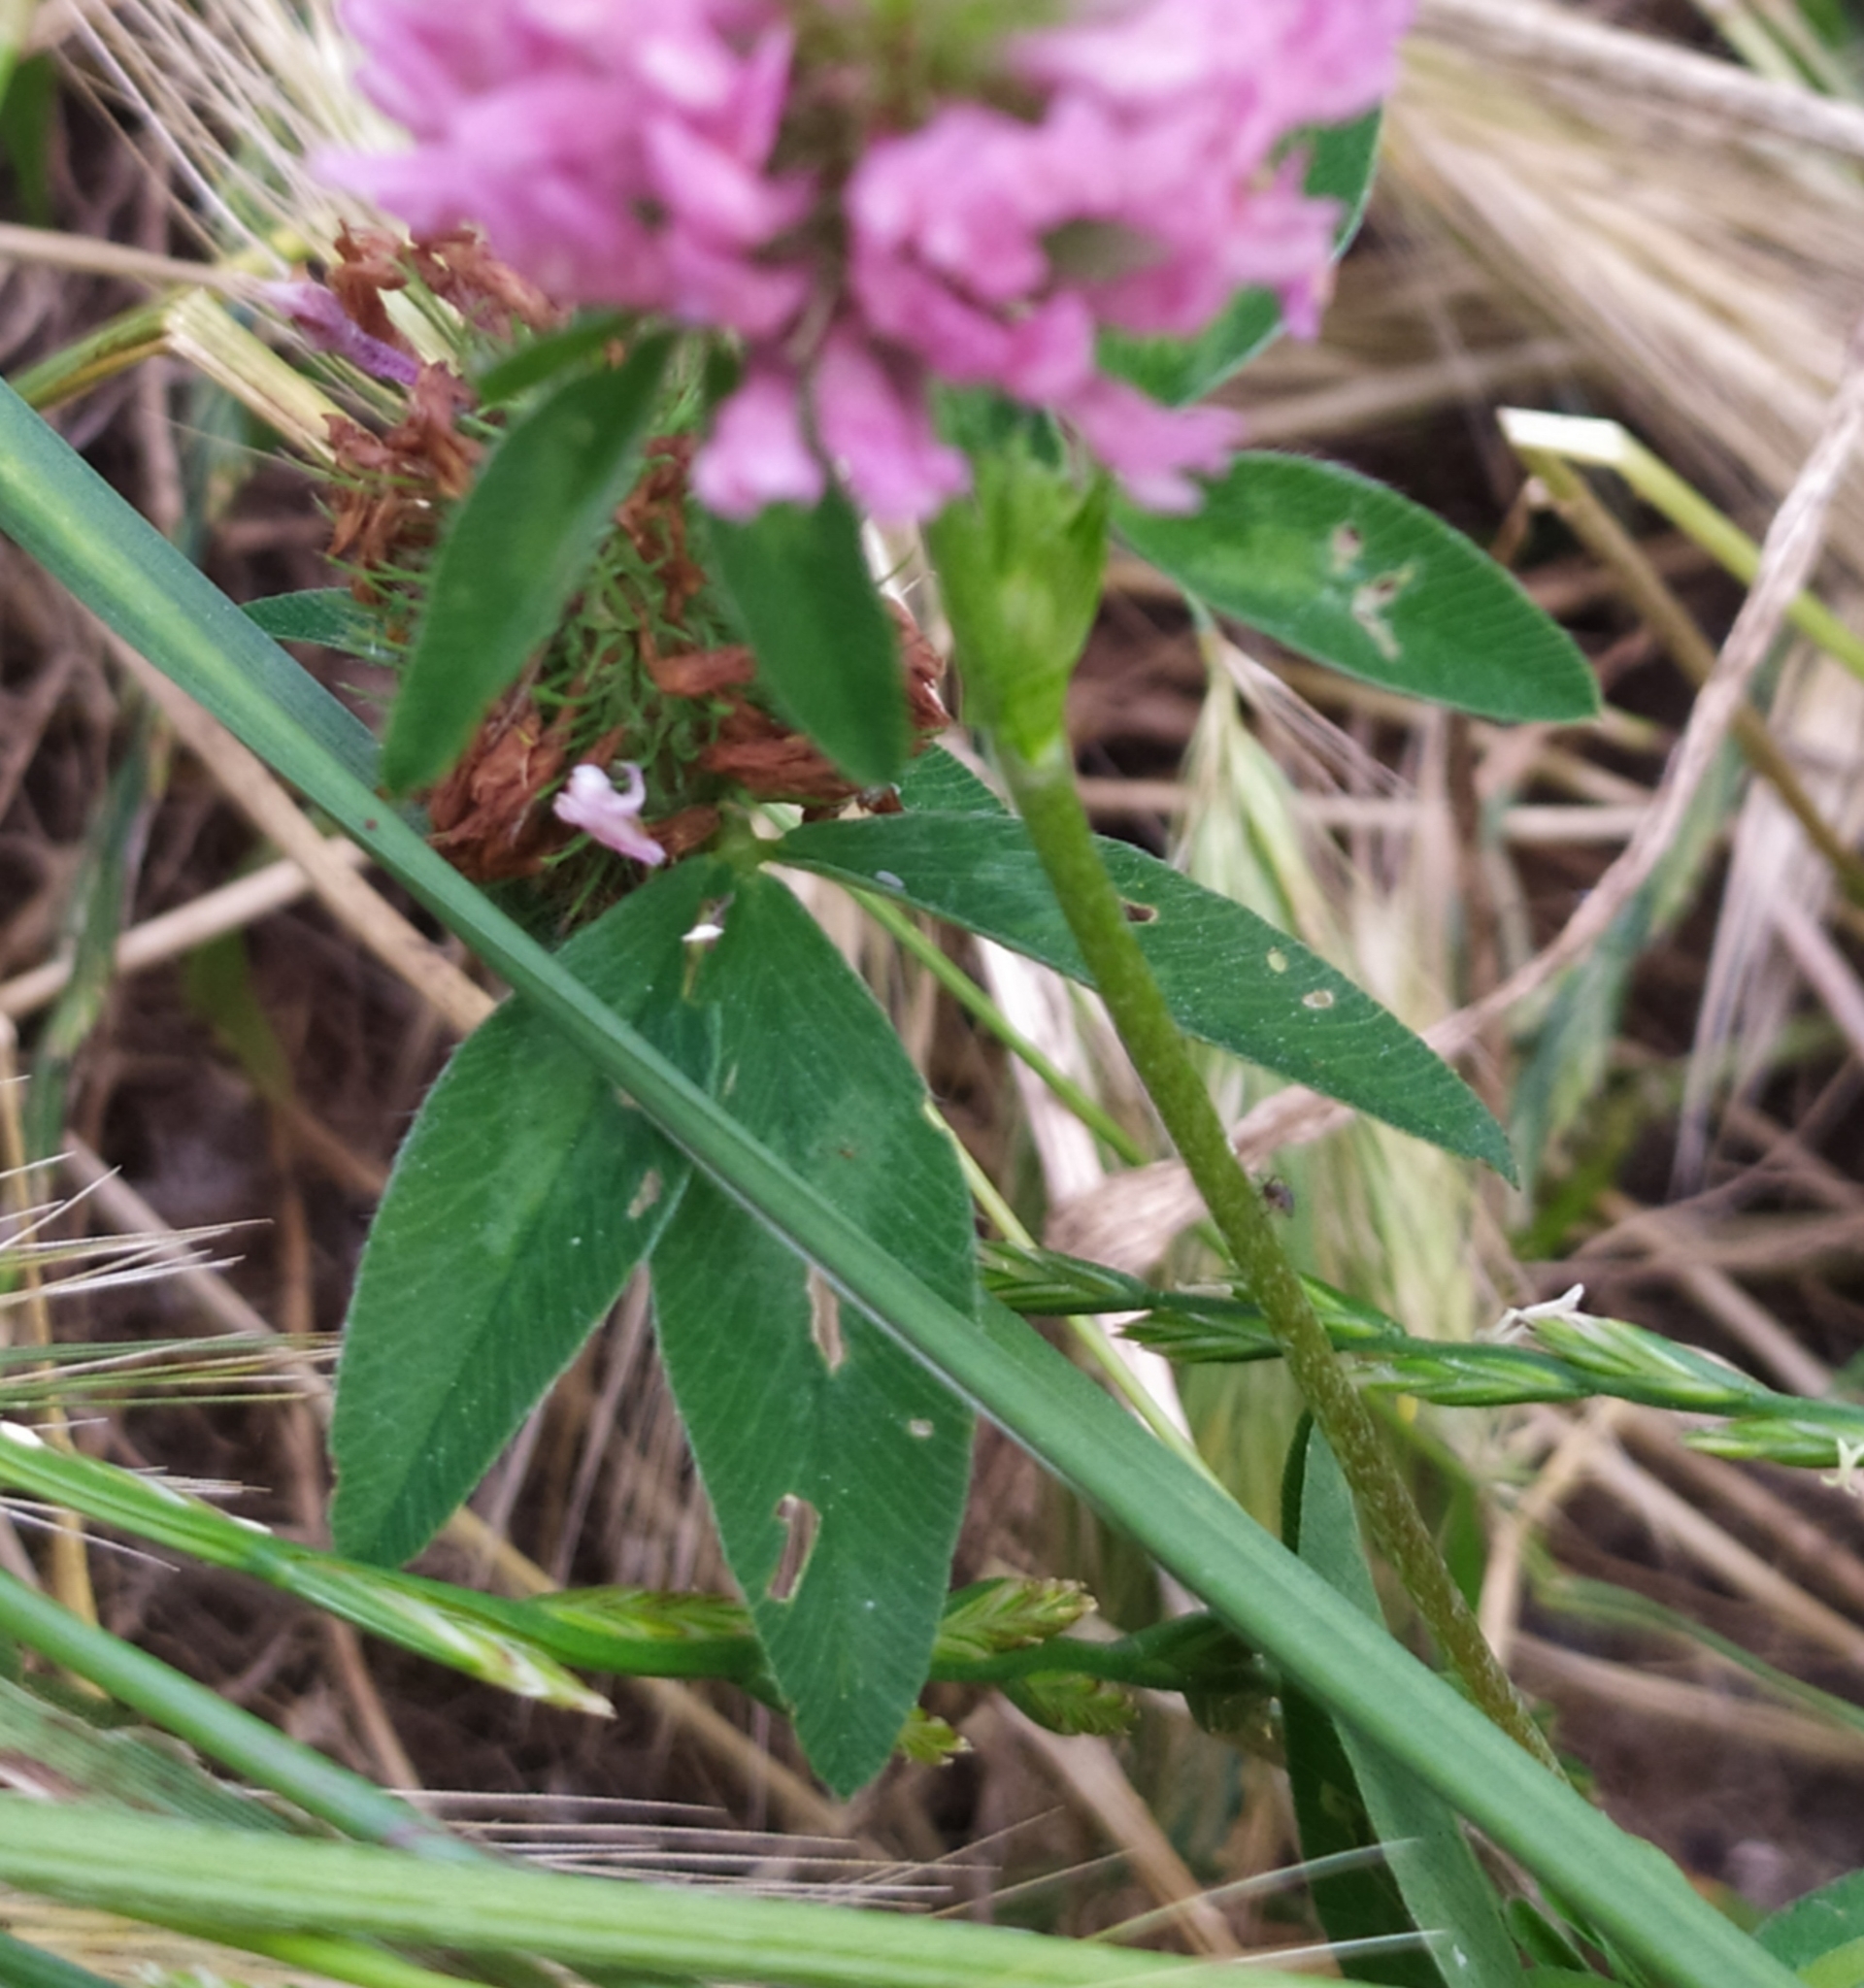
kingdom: Plantae
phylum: Tracheophyta
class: Magnoliopsida
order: Fabales
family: Fabaceae
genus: Trifolium
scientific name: Trifolium pratense
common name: Red clover
